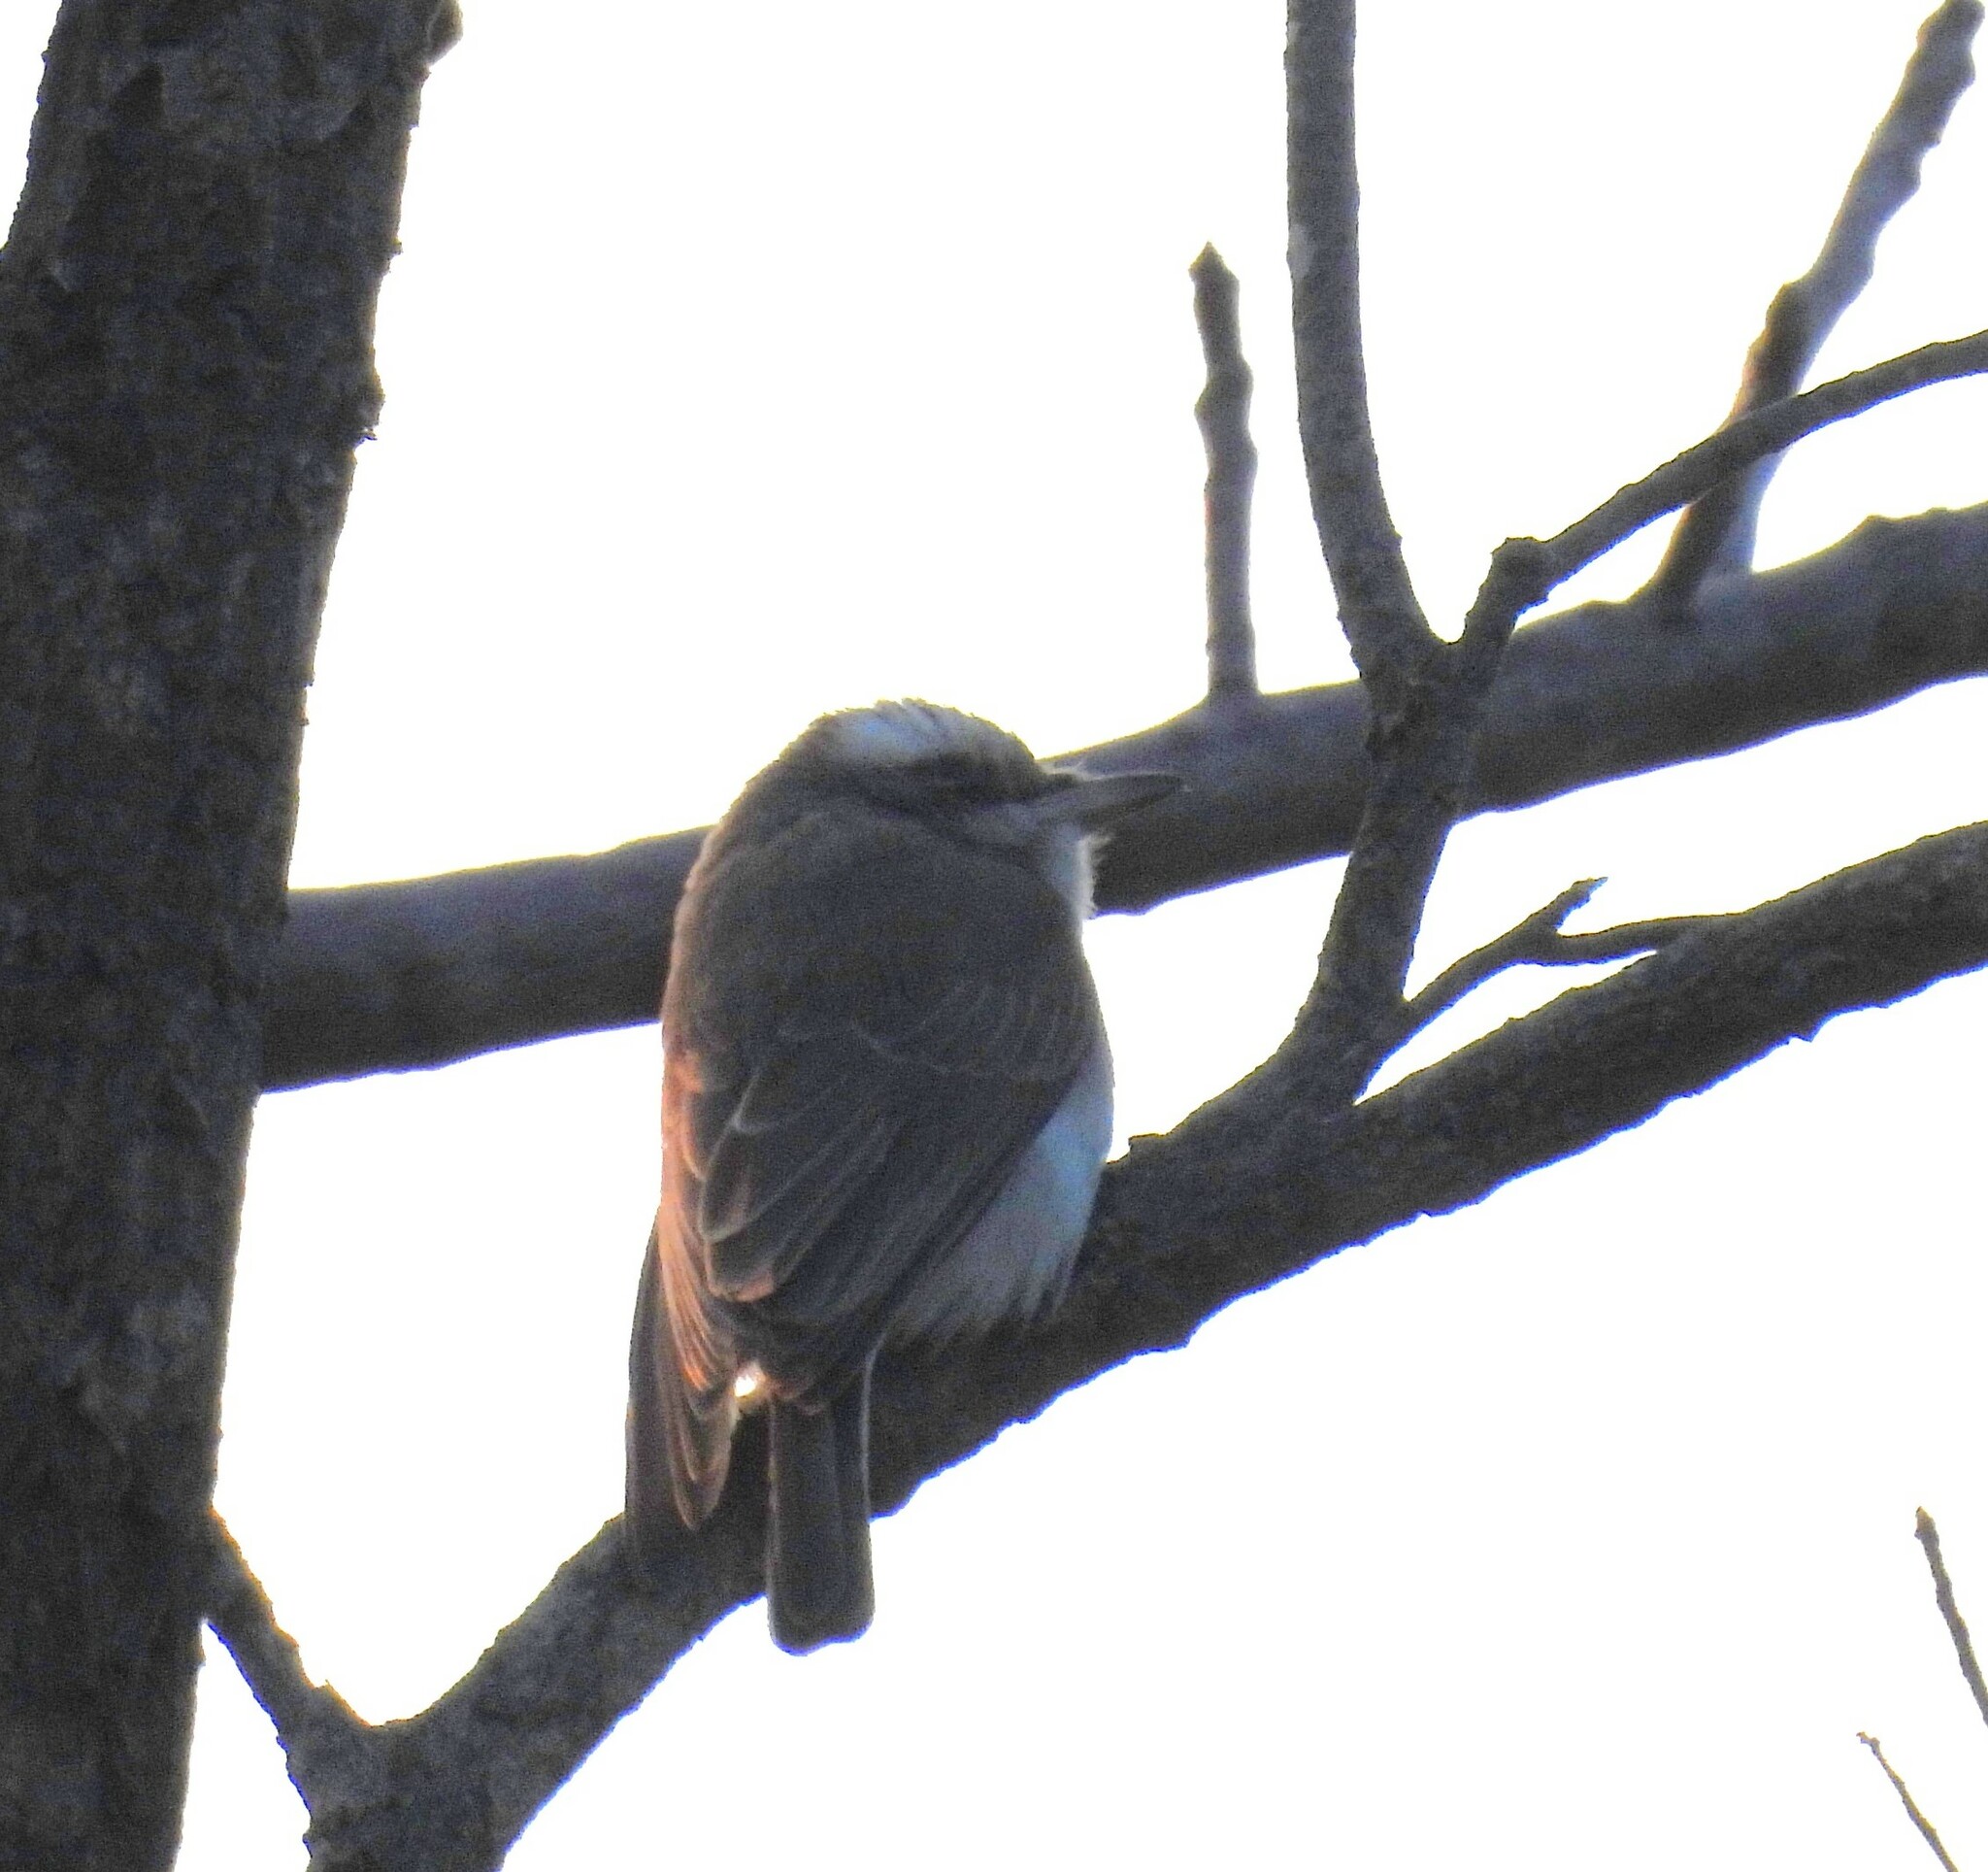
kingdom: Animalia
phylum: Chordata
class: Aves
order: Passeriformes
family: Tephrodornithidae
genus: Tephrodornis
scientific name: Tephrodornis pondicerianus
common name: Common woodshrike
